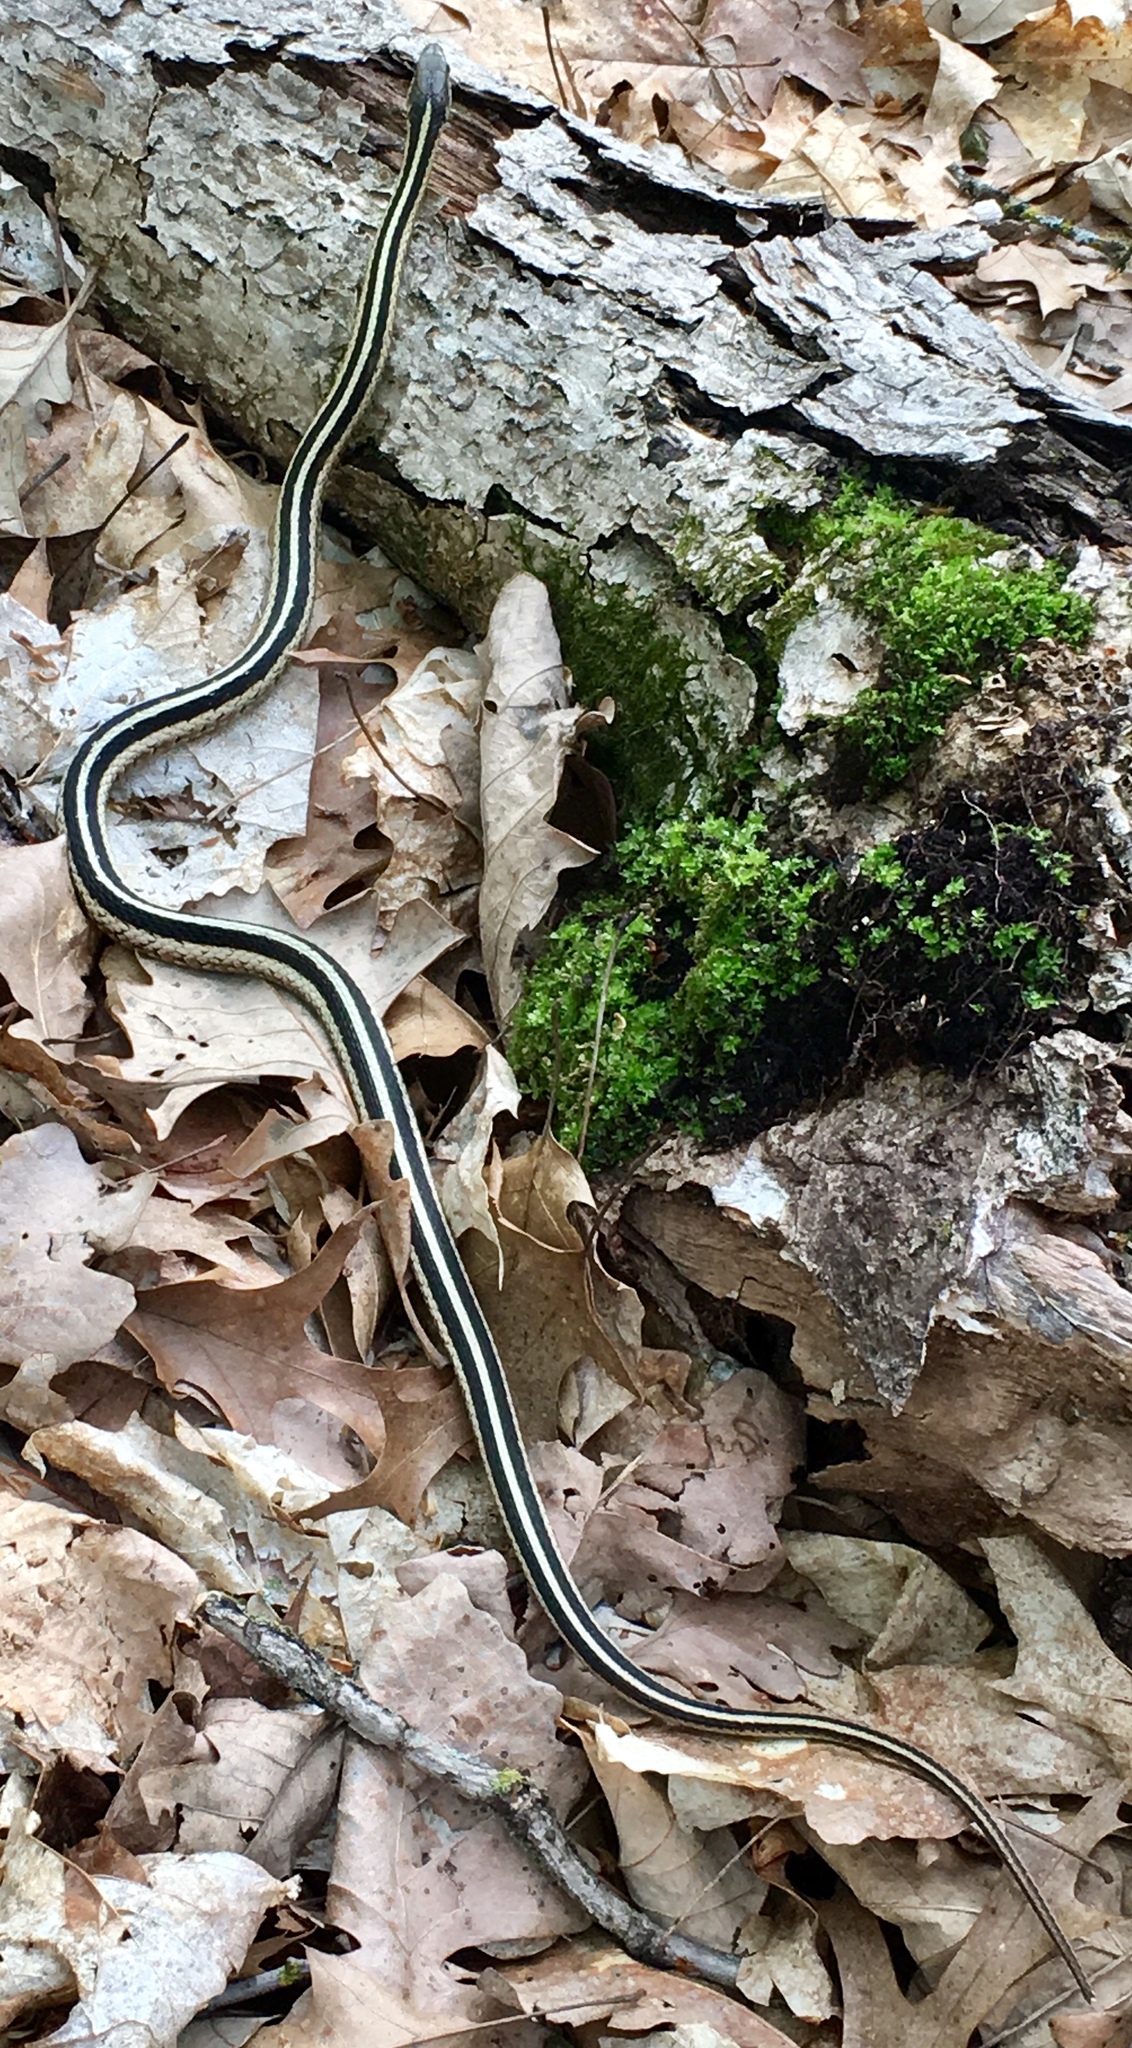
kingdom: Animalia
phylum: Chordata
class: Squamata
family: Colubridae
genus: Thamnophis
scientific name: Thamnophis
